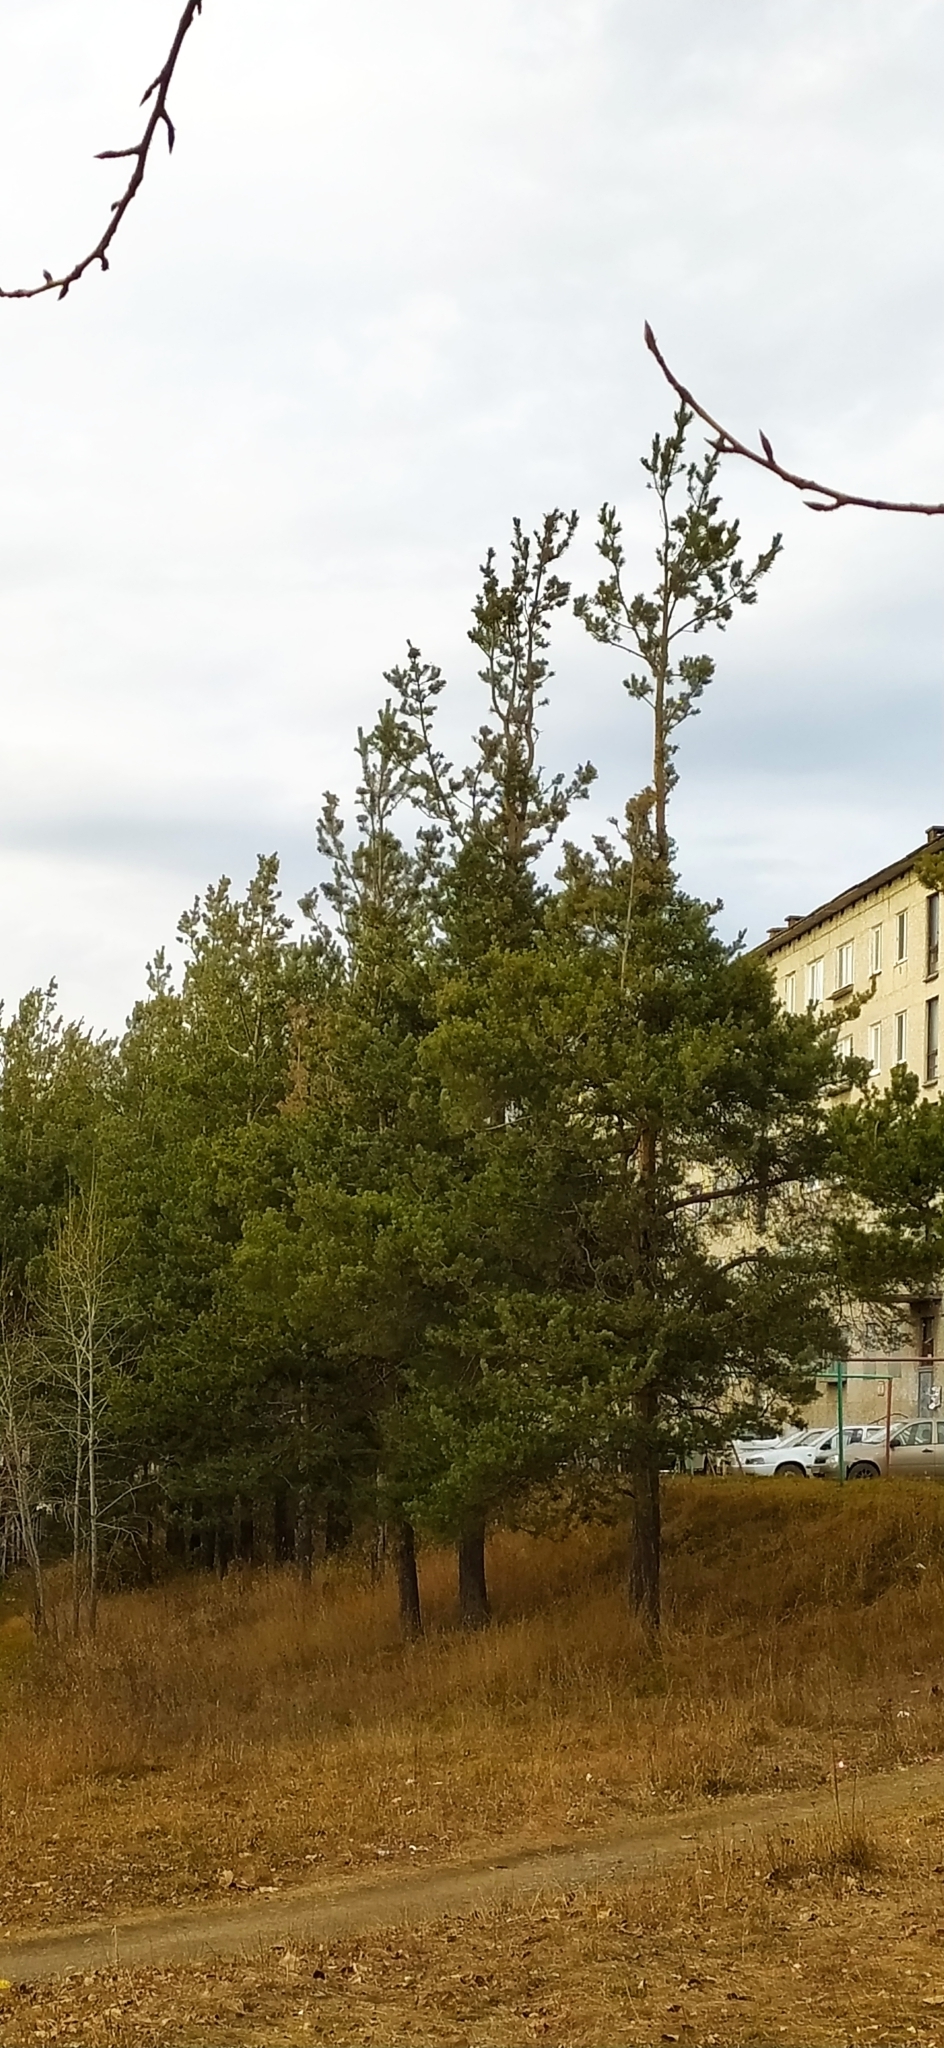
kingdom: Plantae
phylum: Tracheophyta
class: Pinopsida
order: Pinales
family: Pinaceae
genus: Pinus
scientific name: Pinus sylvestris
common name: Scots pine
